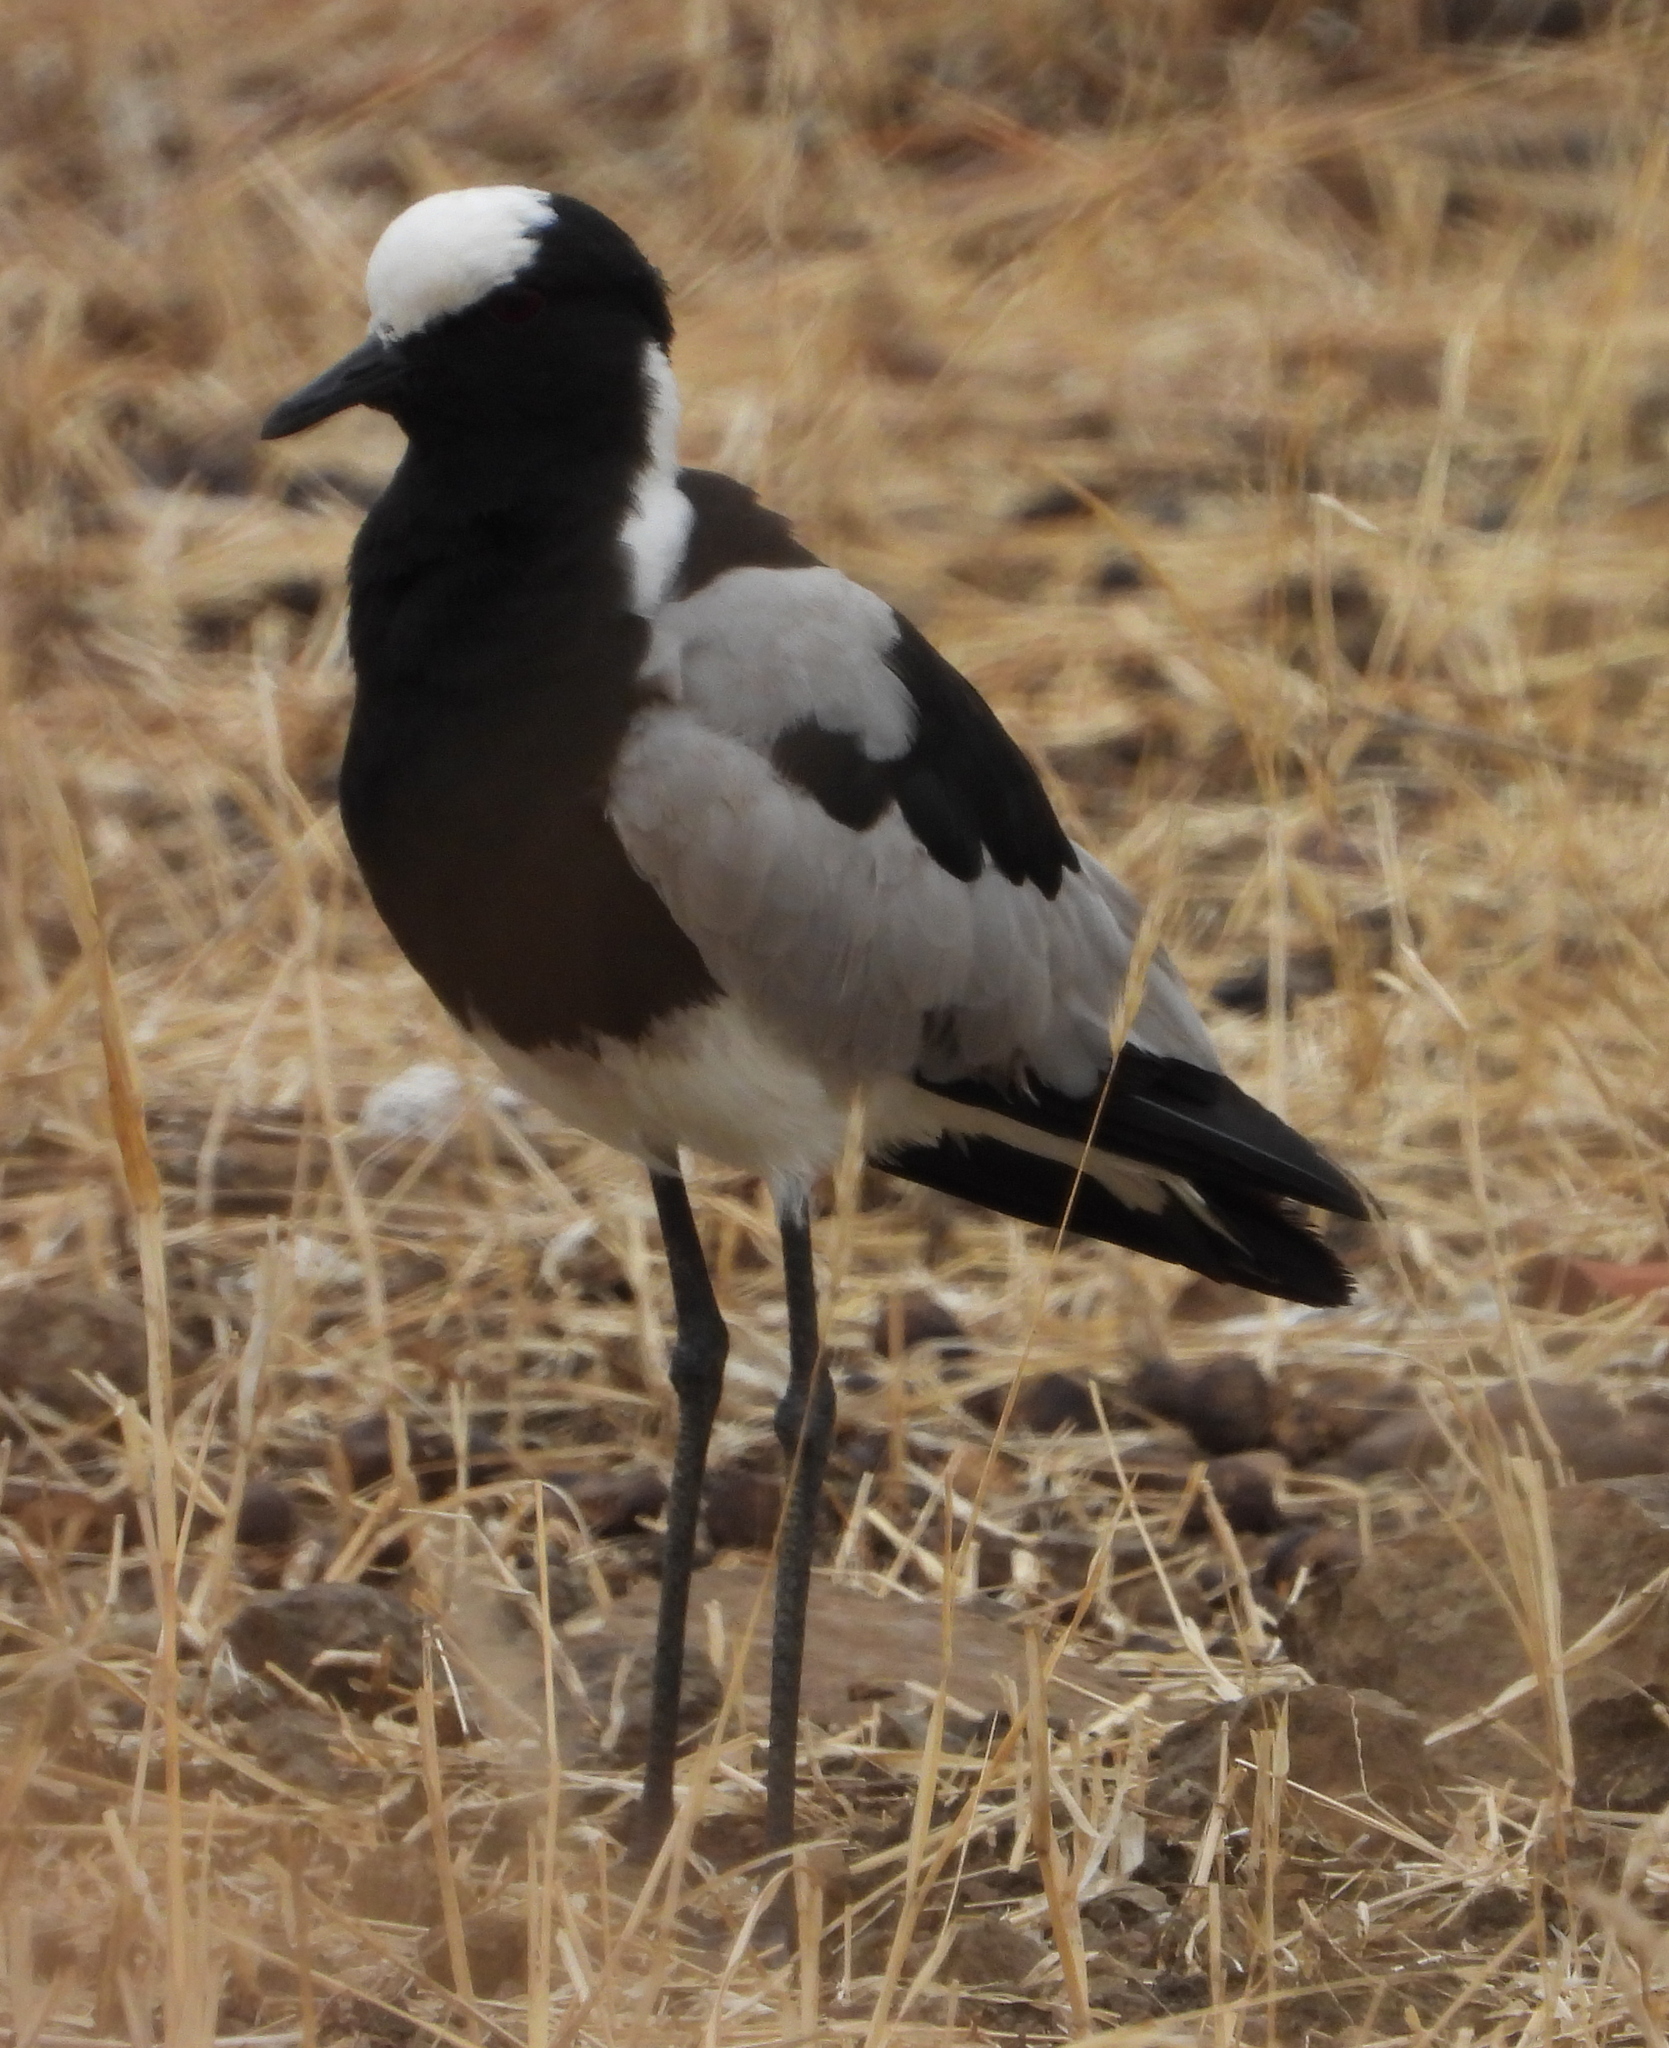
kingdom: Animalia
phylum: Chordata
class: Aves
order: Charadriiformes
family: Charadriidae
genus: Vanellus
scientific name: Vanellus armatus
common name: Blacksmith lapwing
